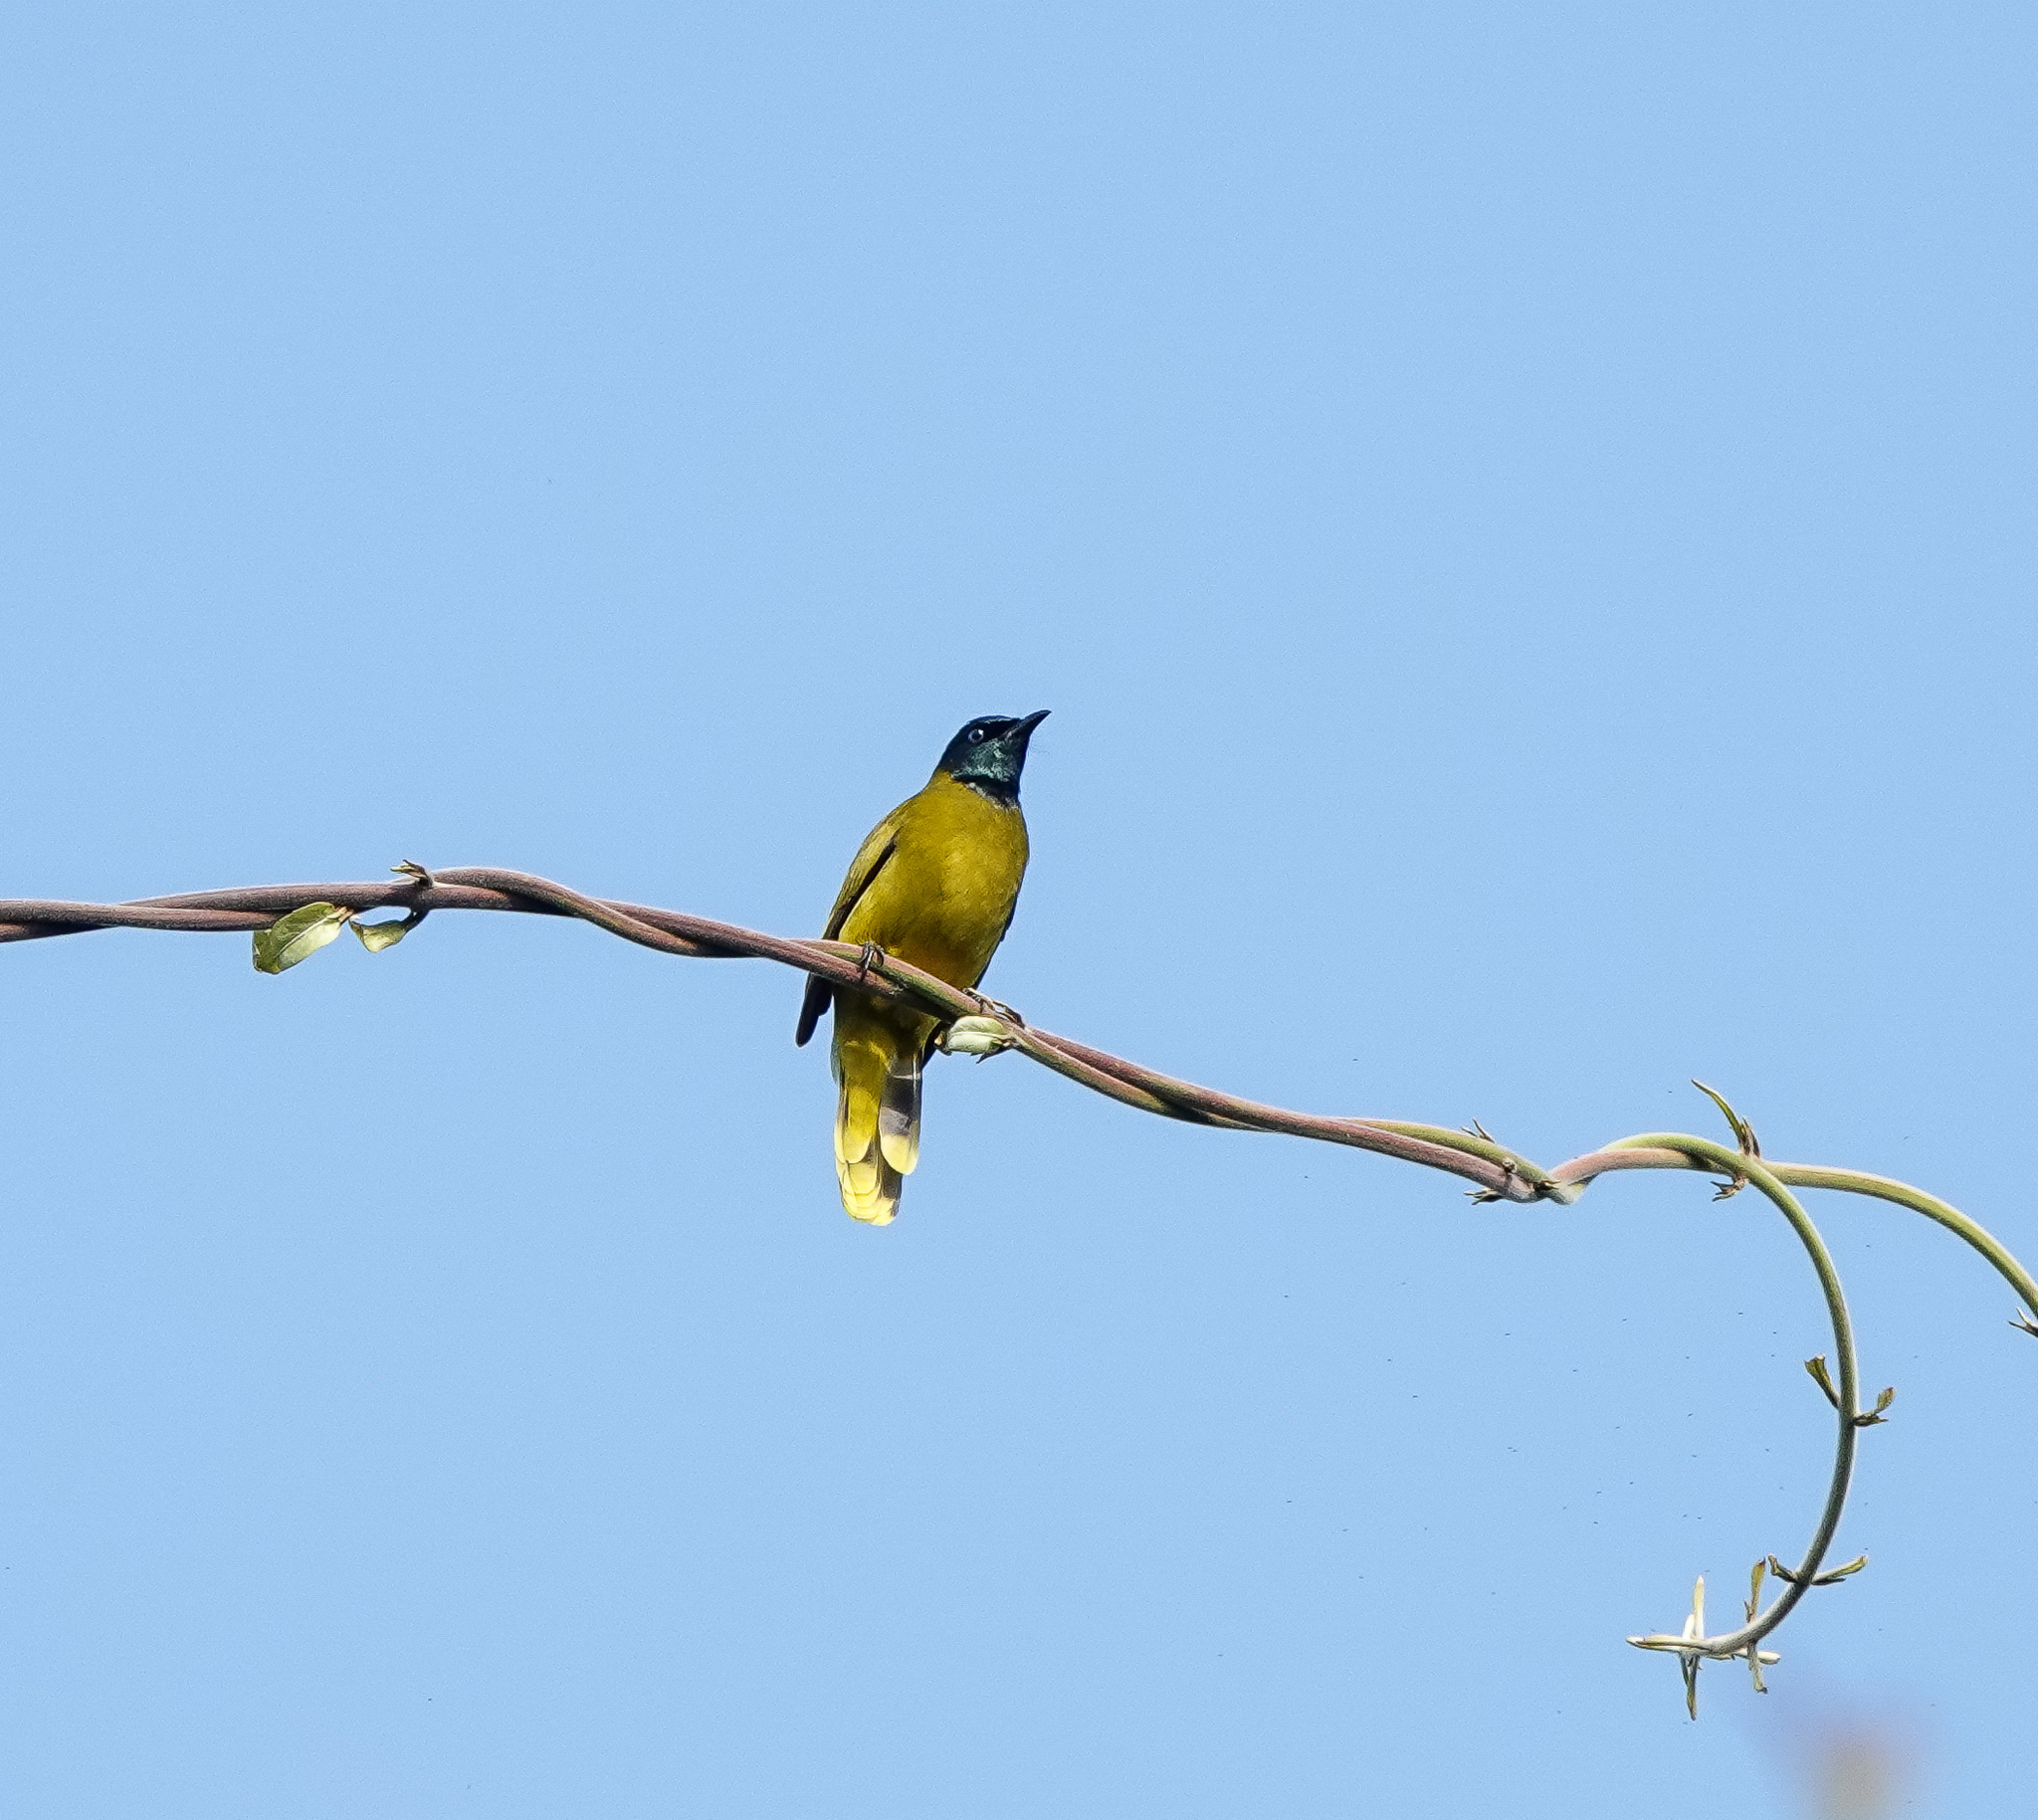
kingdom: Animalia
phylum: Chordata
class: Aves
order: Passeriformes
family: Pycnonotidae
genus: Microtarsus
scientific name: Microtarsus
